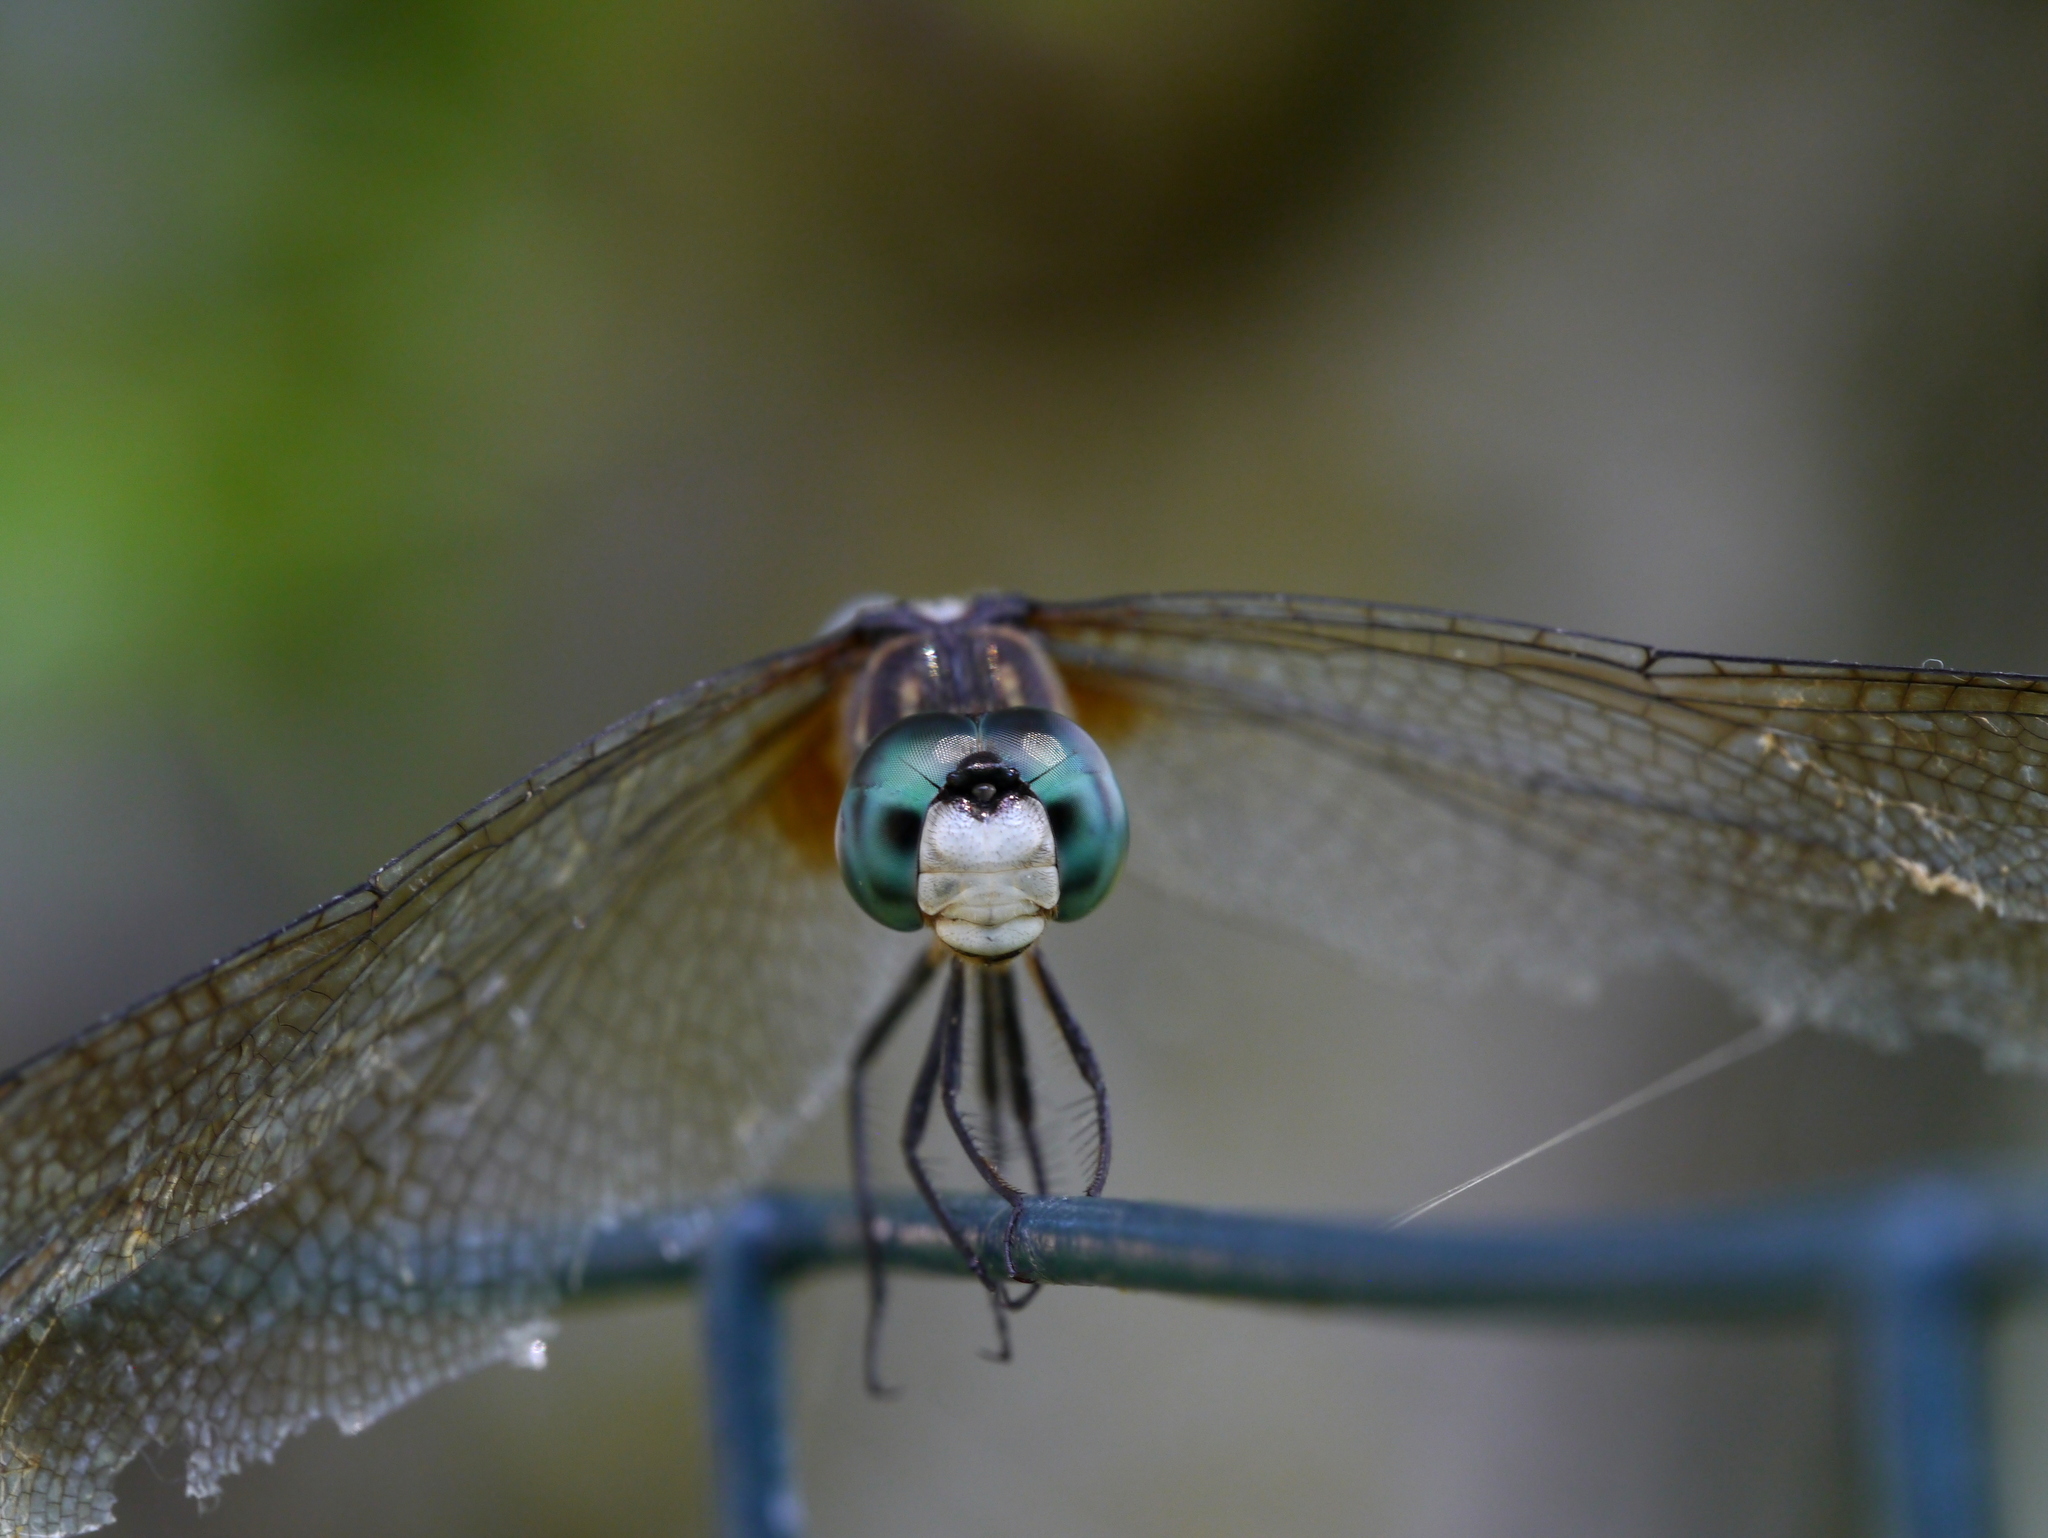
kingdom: Animalia
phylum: Arthropoda
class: Insecta
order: Odonata
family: Libellulidae
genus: Pachydiplax
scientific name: Pachydiplax longipennis
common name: Blue dasher
